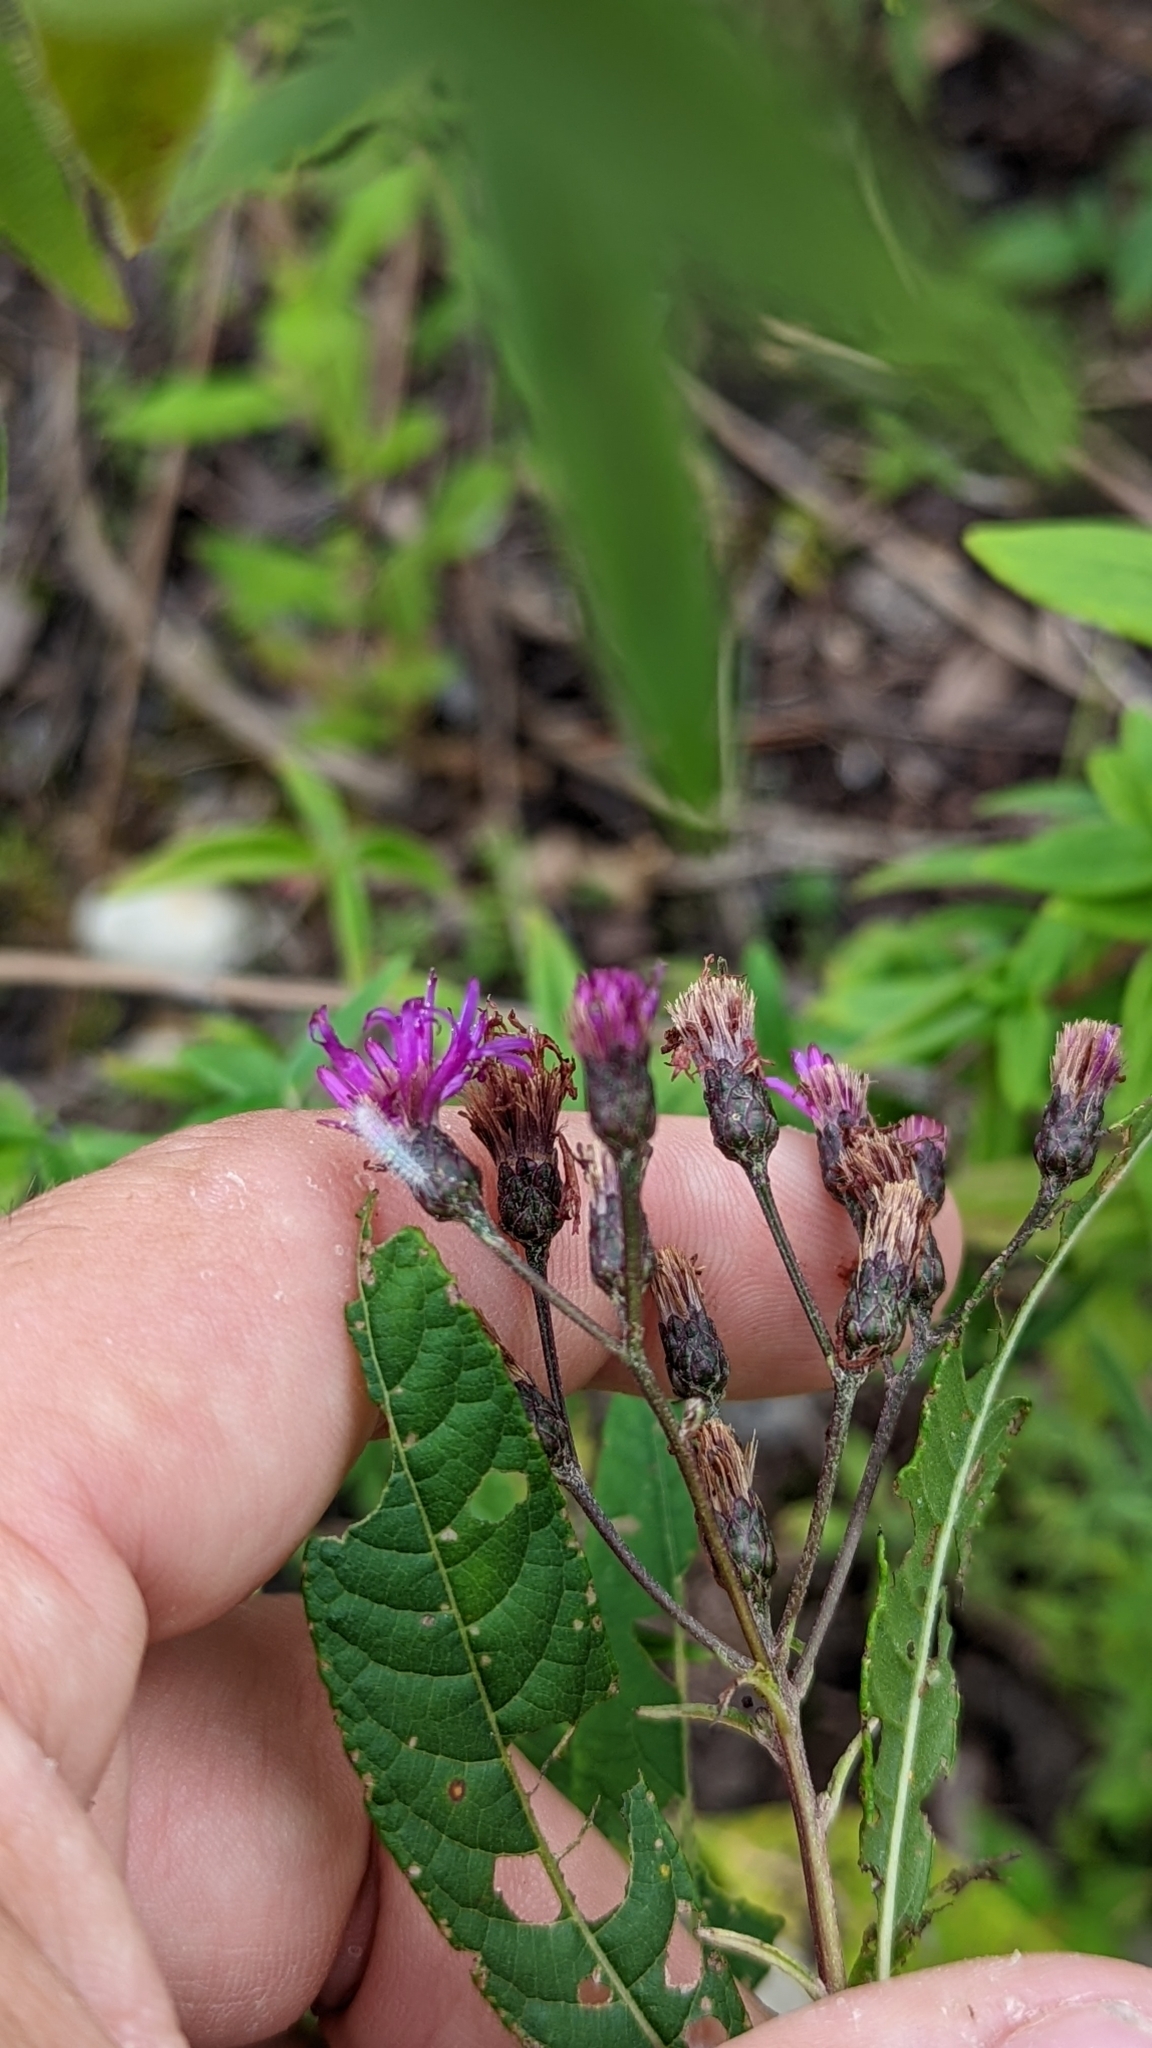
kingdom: Plantae
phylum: Tracheophyta
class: Magnoliopsida
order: Asterales
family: Asteraceae
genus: Vernonia
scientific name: Vernonia gigantea
